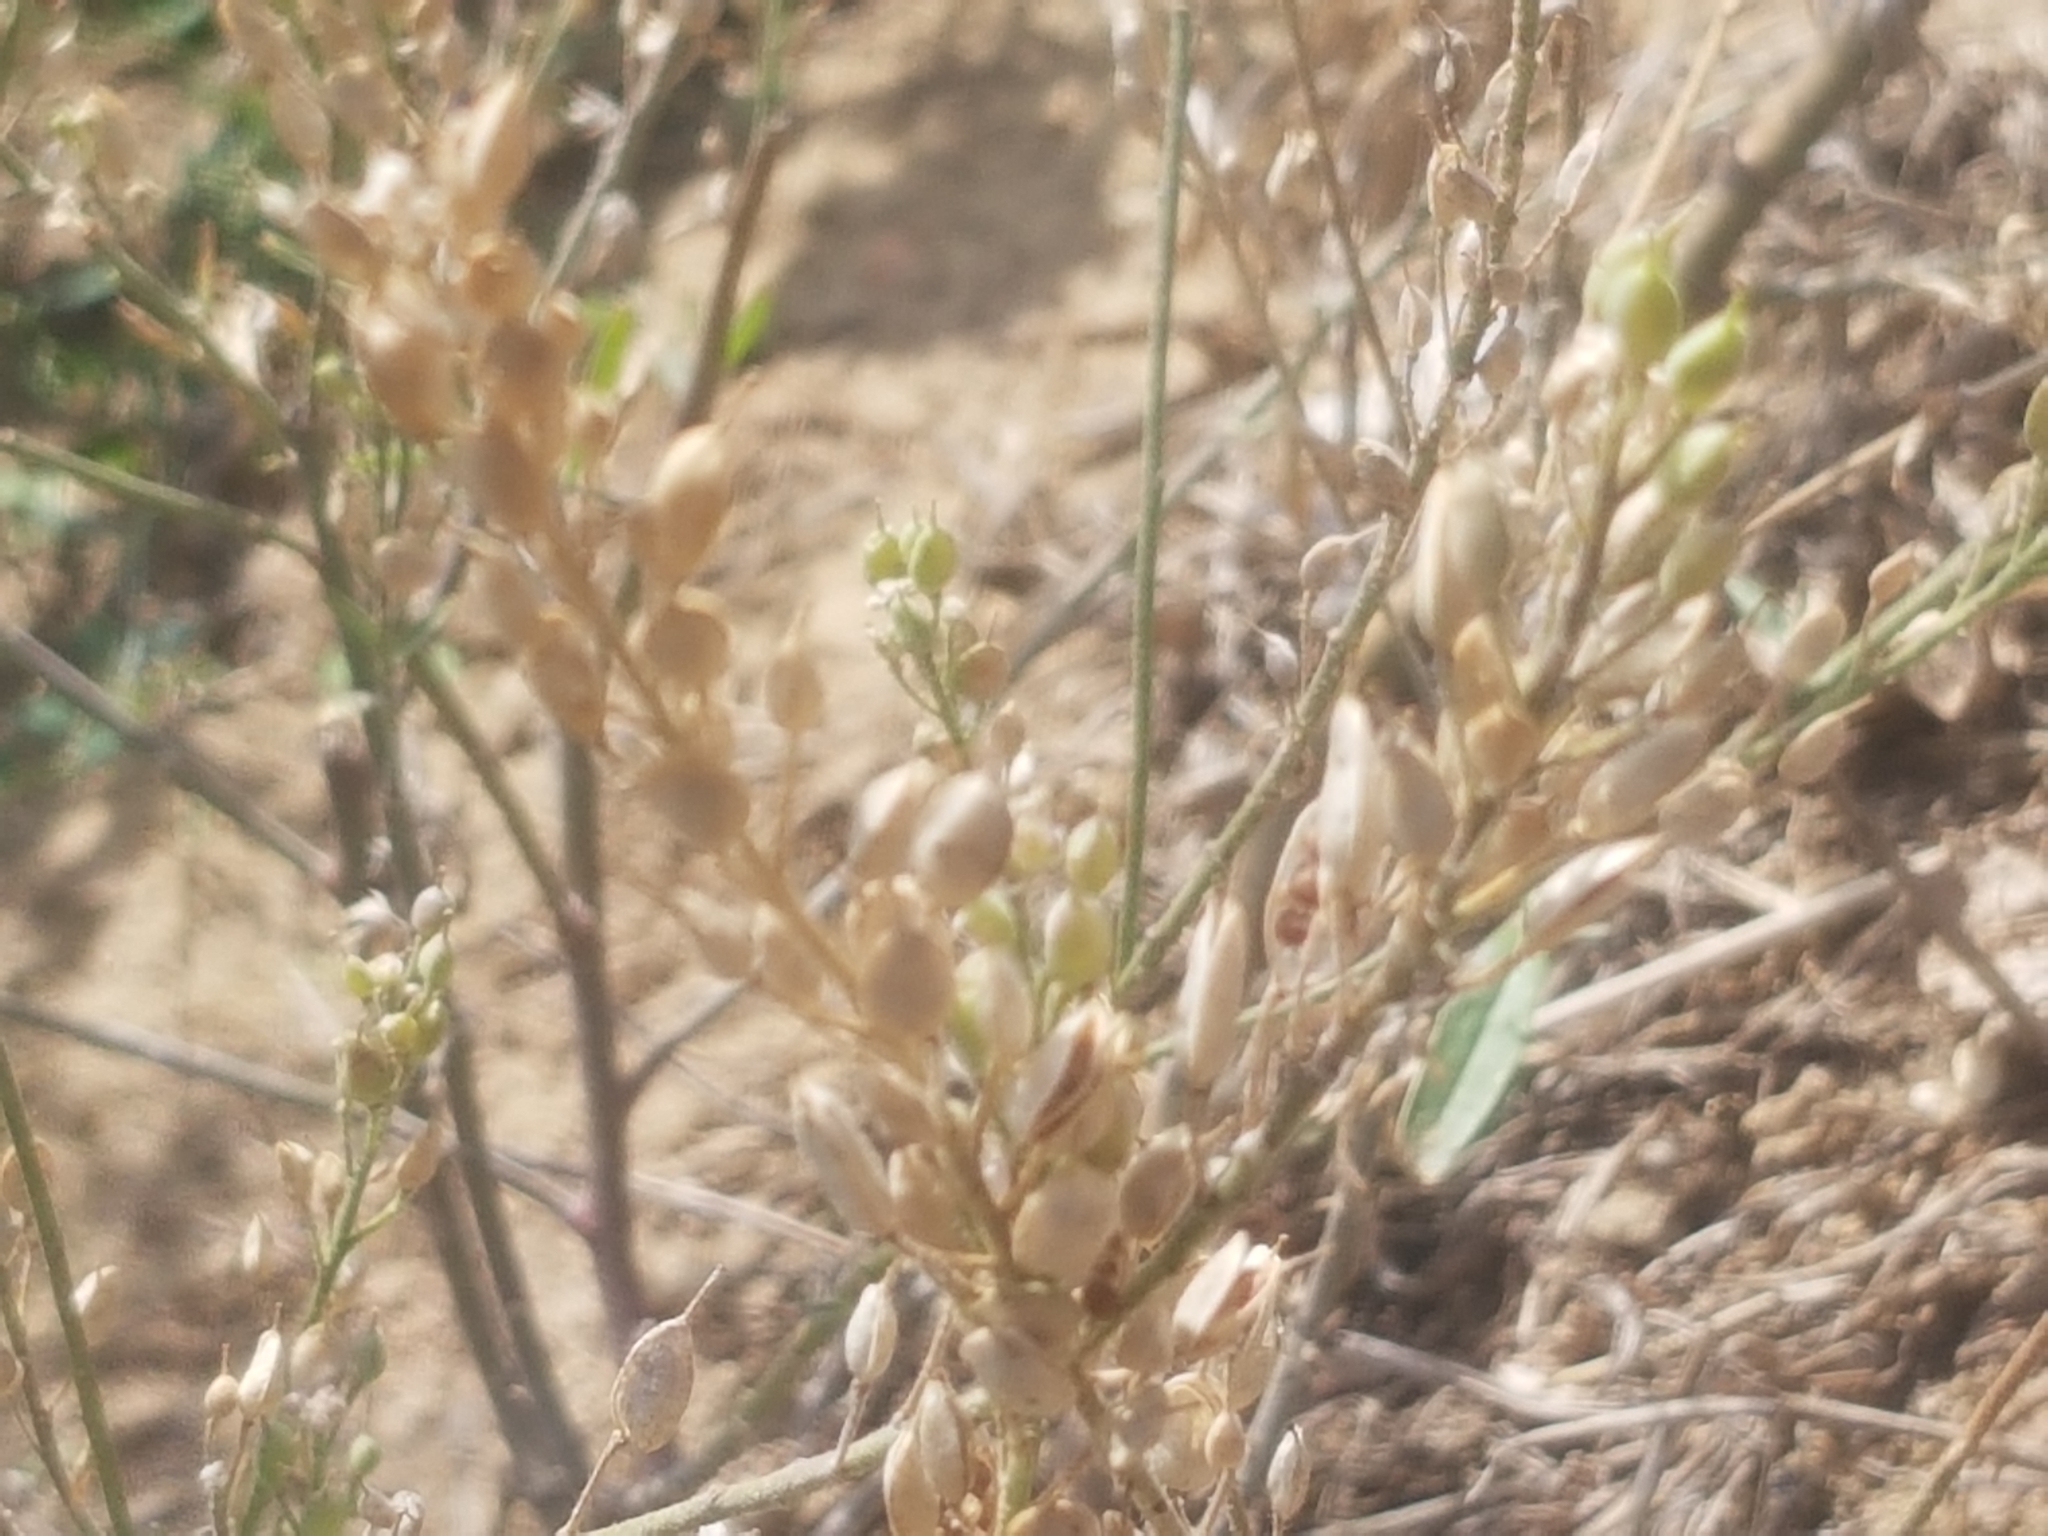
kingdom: Plantae
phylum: Tracheophyta
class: Magnoliopsida
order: Brassicales
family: Brassicaceae
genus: Berteroa
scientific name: Berteroa incana
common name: Hoary alison
